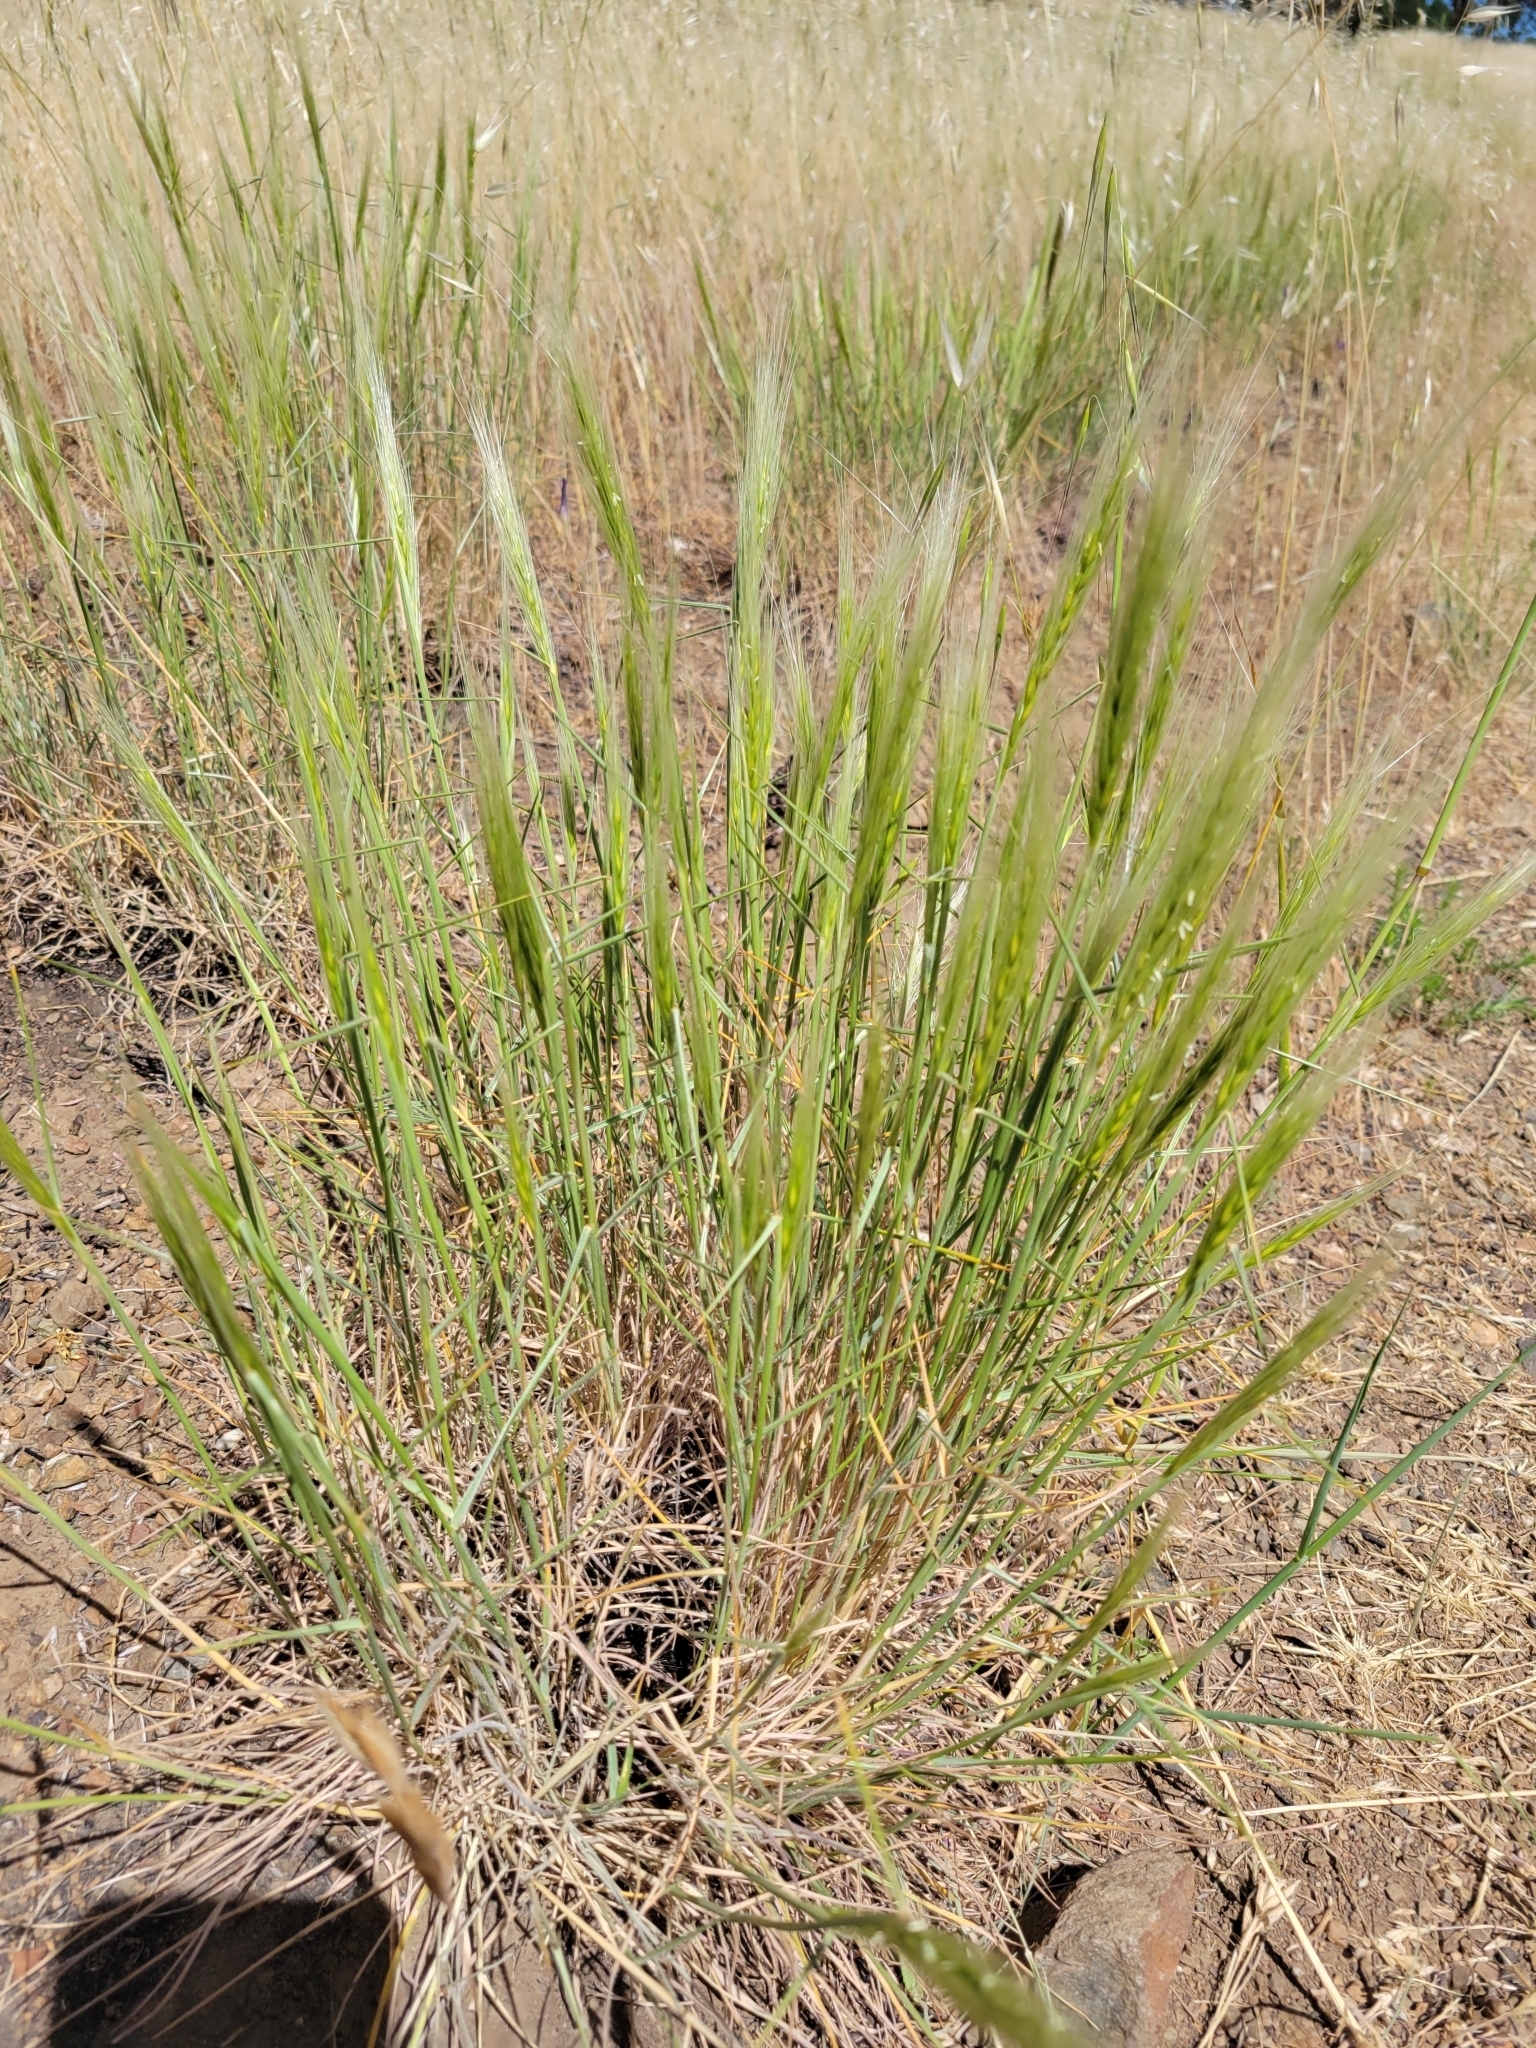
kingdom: Plantae
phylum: Tracheophyta
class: Liliopsida
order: Poales
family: Poaceae
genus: Elymus
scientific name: Elymus elymoides
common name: Bottlebrush squirreltail
